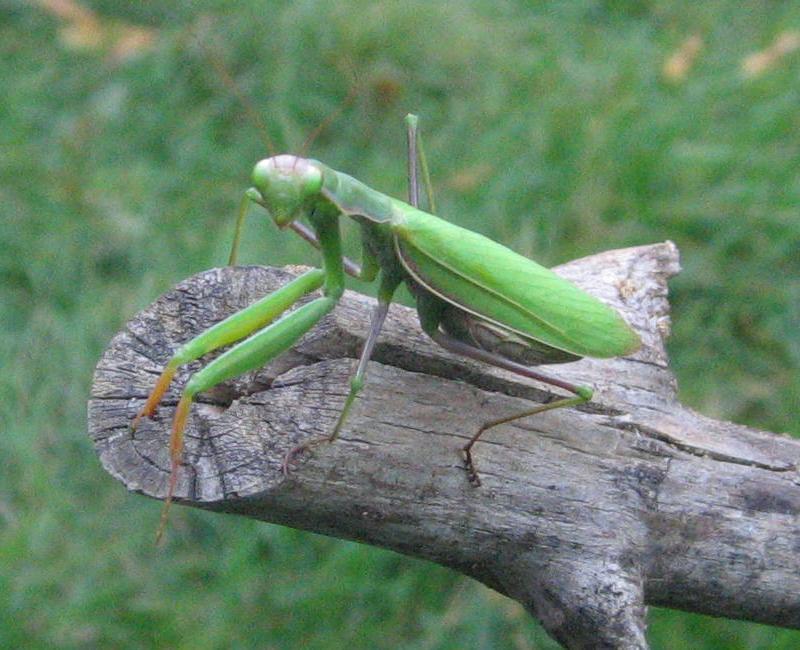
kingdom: Animalia
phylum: Arthropoda
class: Insecta
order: Mantodea
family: Mantidae
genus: Mantis
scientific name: Mantis religiosa
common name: Praying mantis
